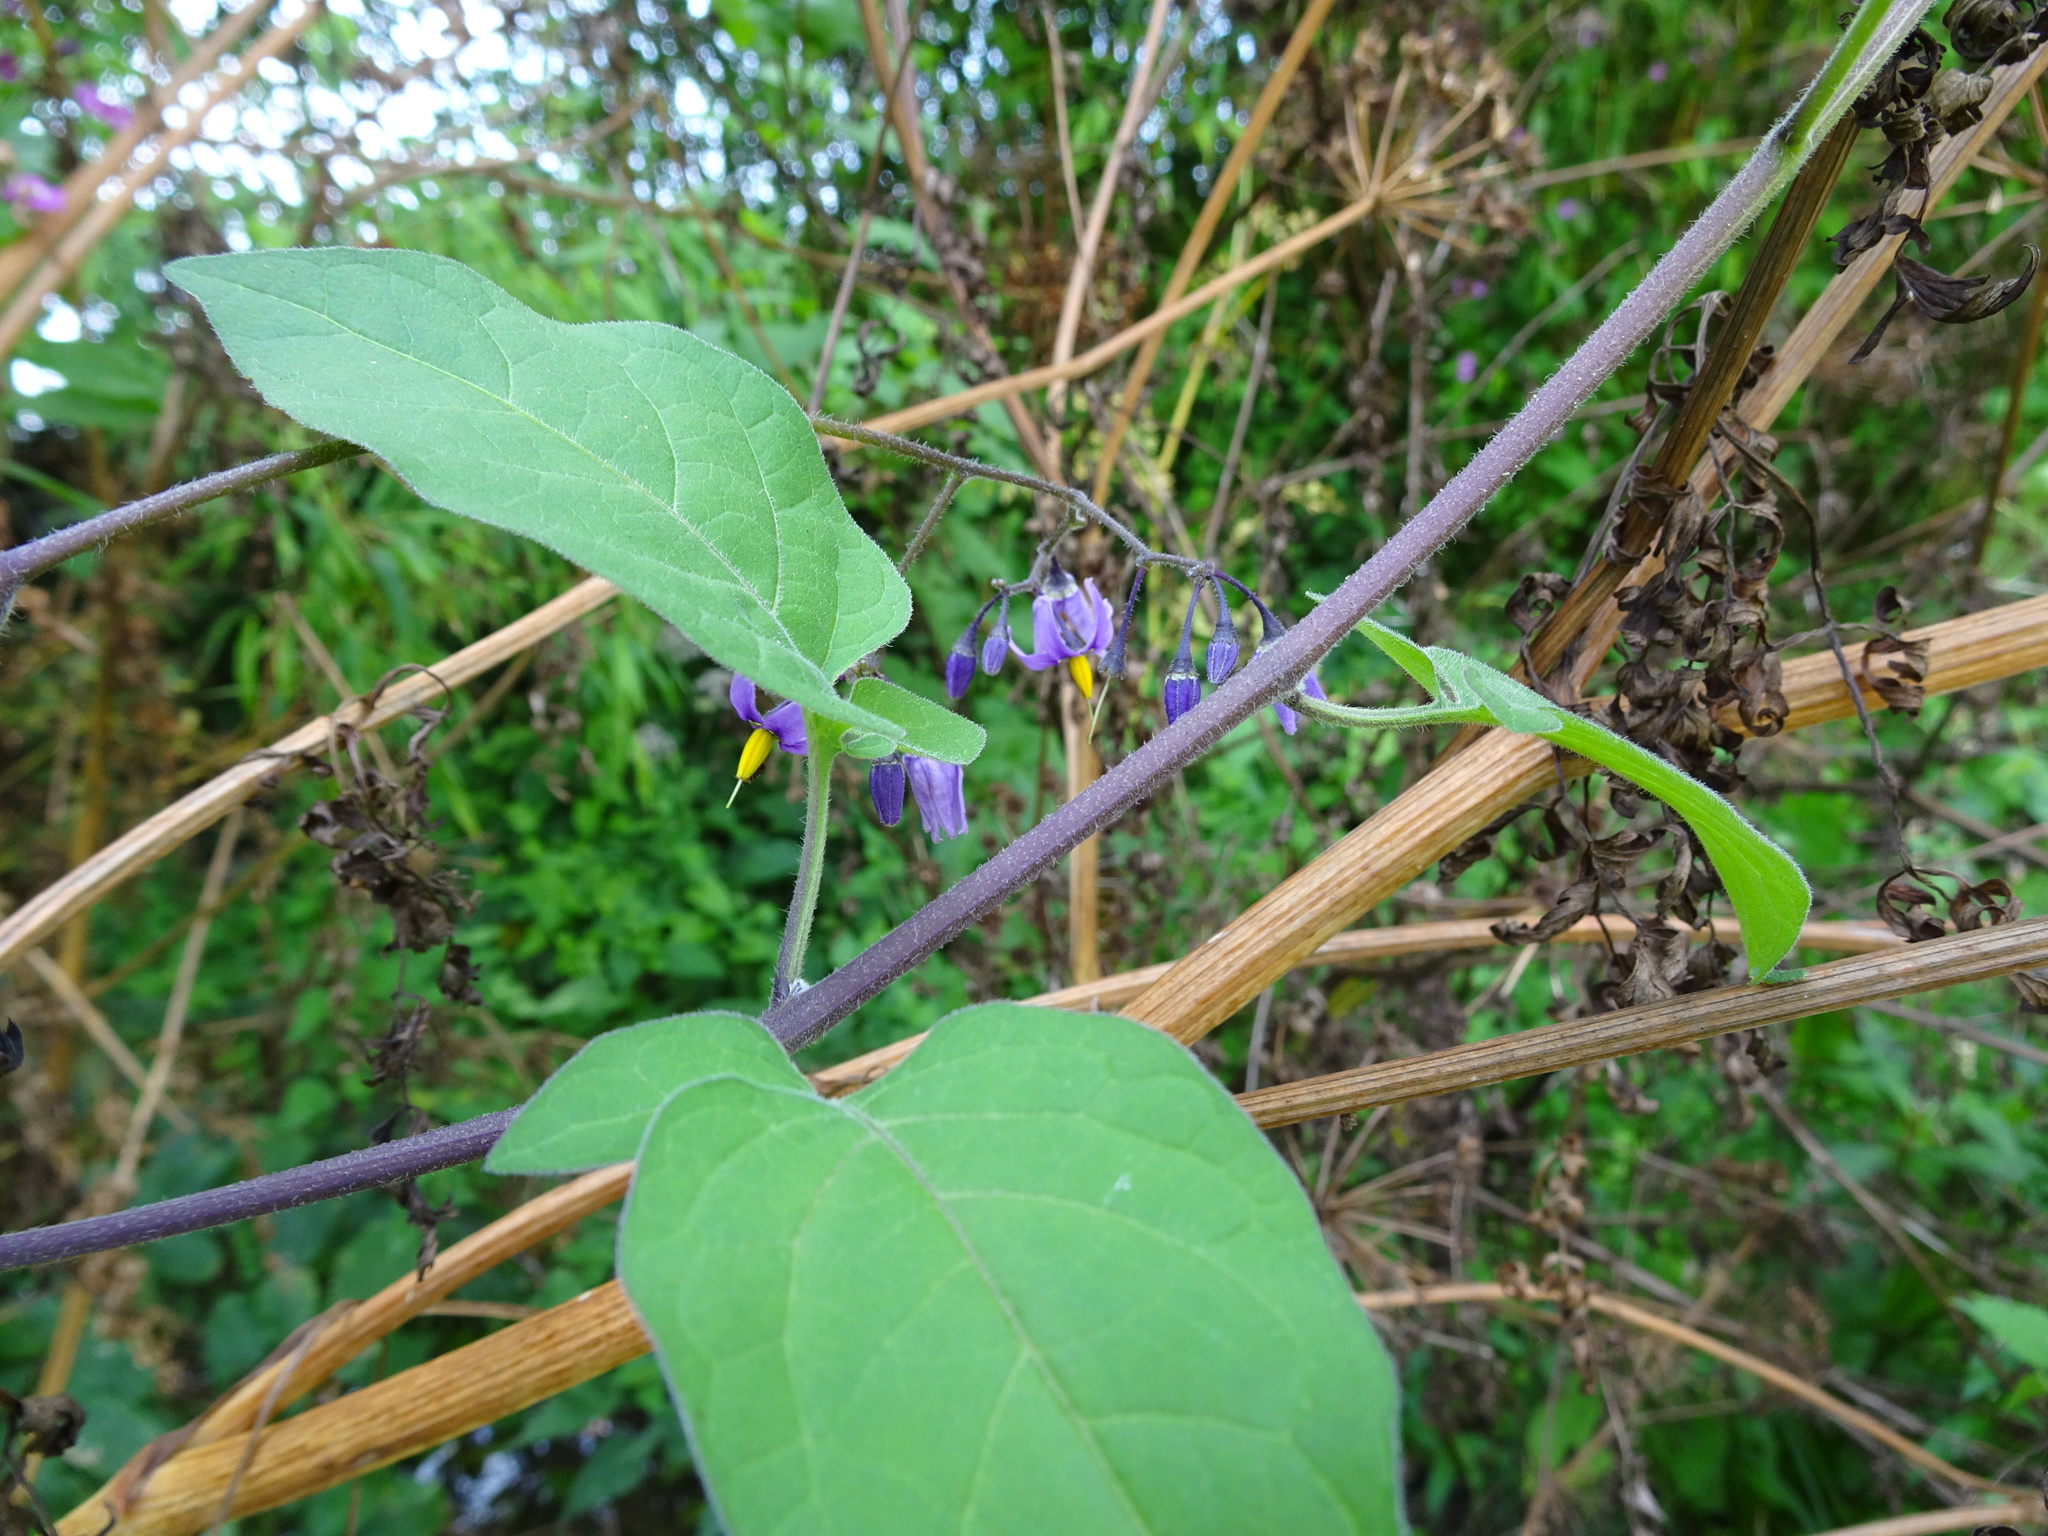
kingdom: Plantae
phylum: Tracheophyta
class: Magnoliopsida
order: Solanales
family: Solanaceae
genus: Solanum
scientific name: Solanum dulcamara
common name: Climbing nightshade
